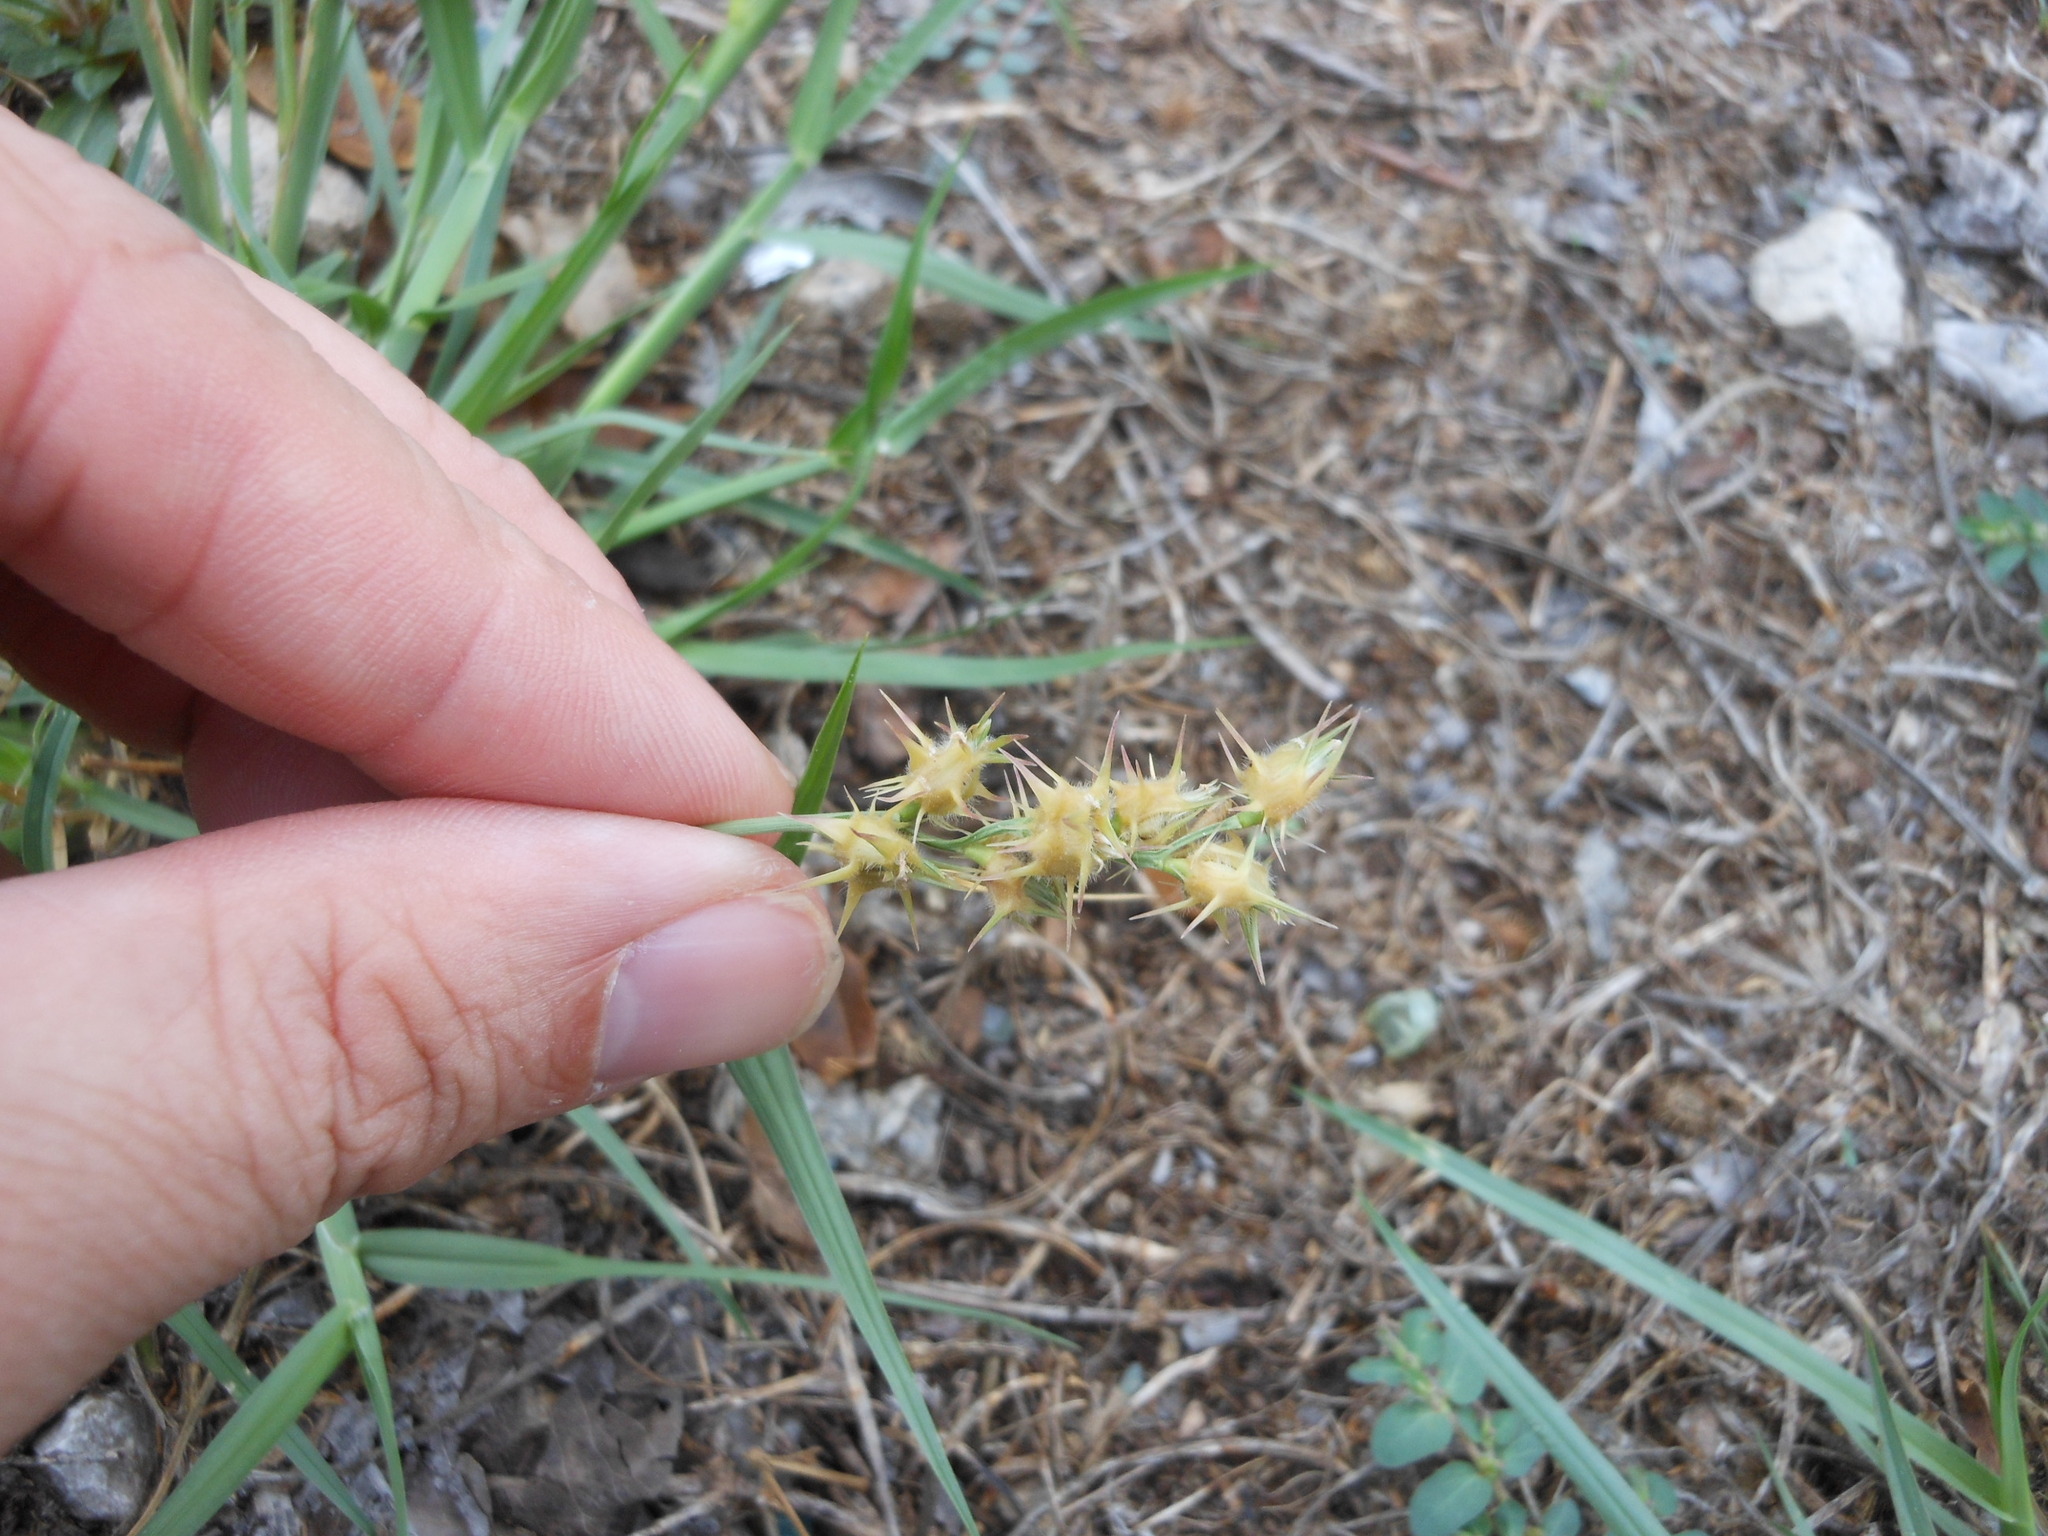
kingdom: Plantae
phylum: Tracheophyta
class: Liliopsida
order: Poales
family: Poaceae
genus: Cenchrus
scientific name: Cenchrus spinifex
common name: Coast sandbur
